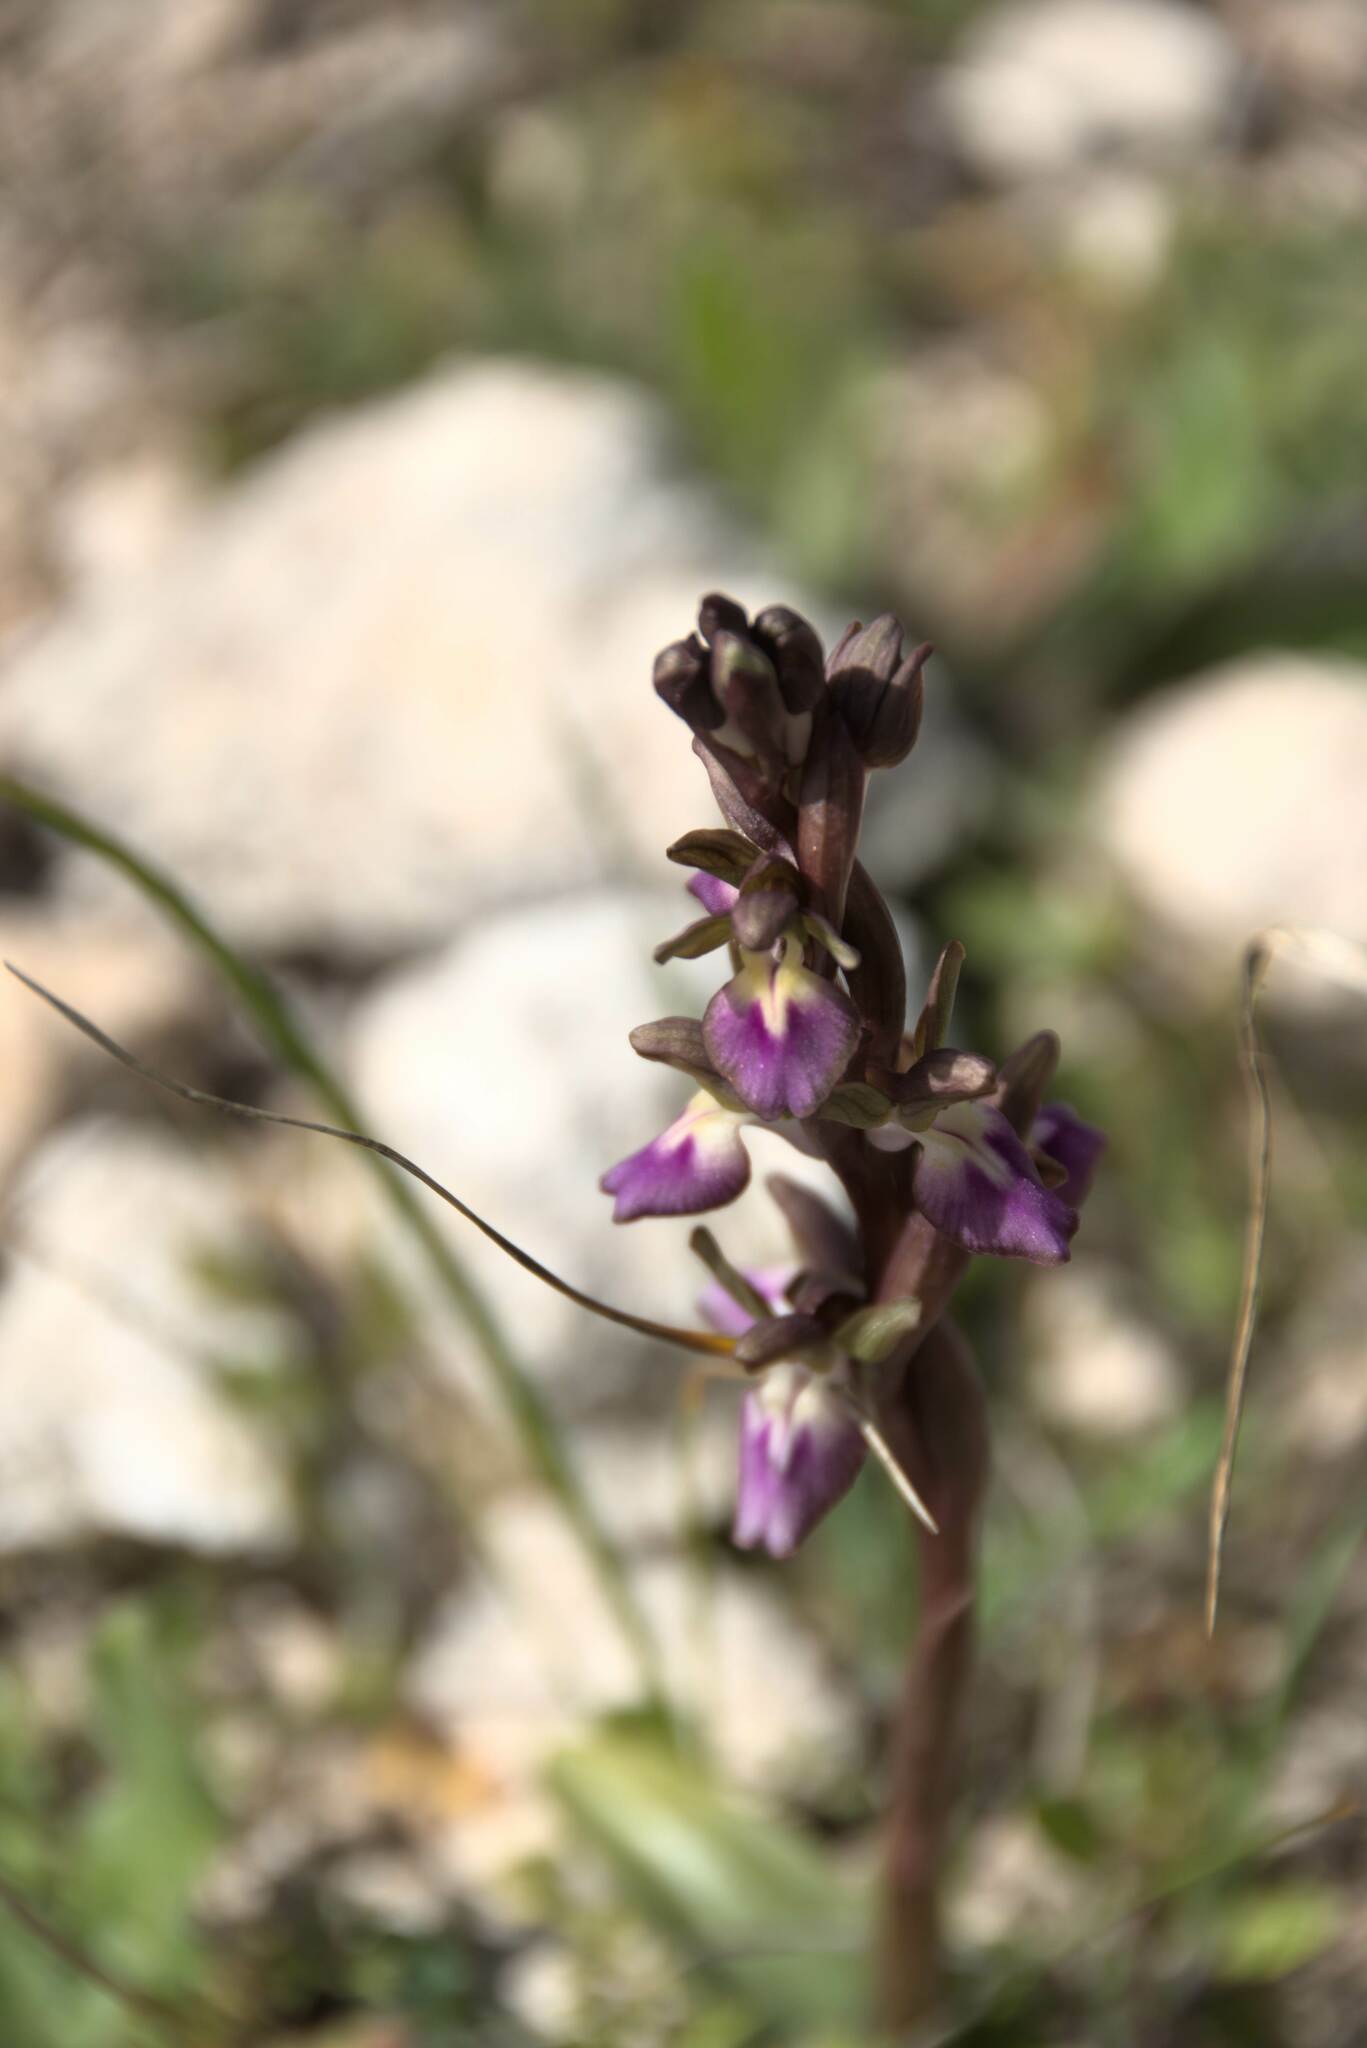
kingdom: Plantae
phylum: Tracheophyta
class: Liliopsida
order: Asparagales
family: Orchidaceae
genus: Anacamptis
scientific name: Anacamptis collina
